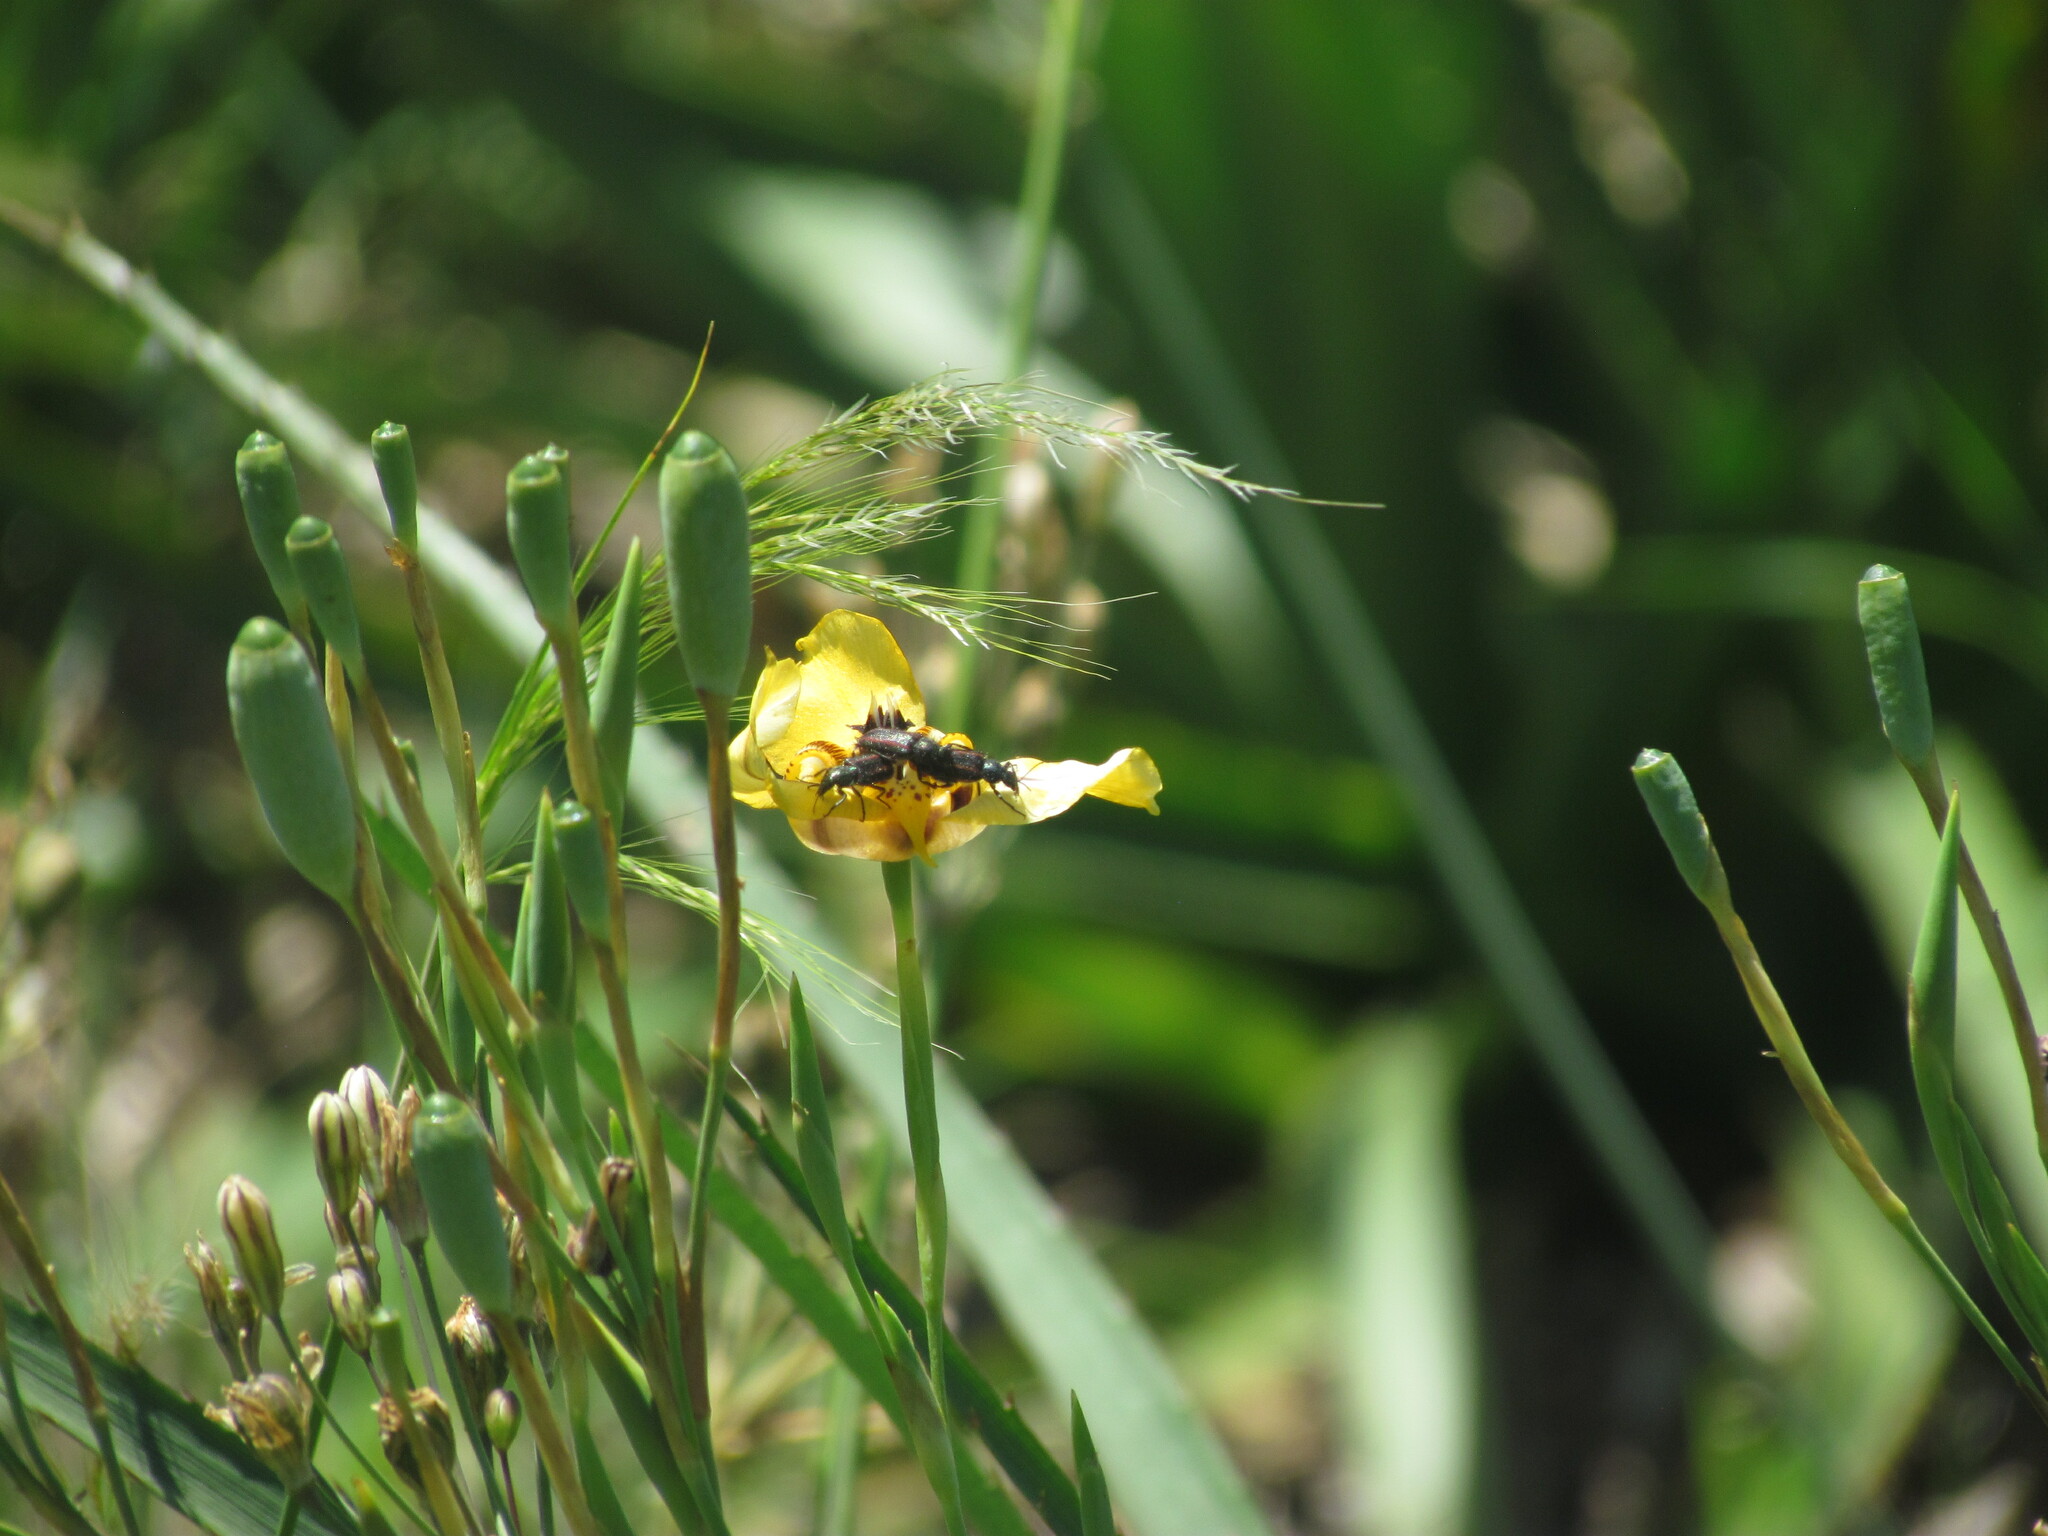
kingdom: Animalia
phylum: Arthropoda
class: Insecta
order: Coleoptera
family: Melyridae
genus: Astylus
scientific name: Astylus
